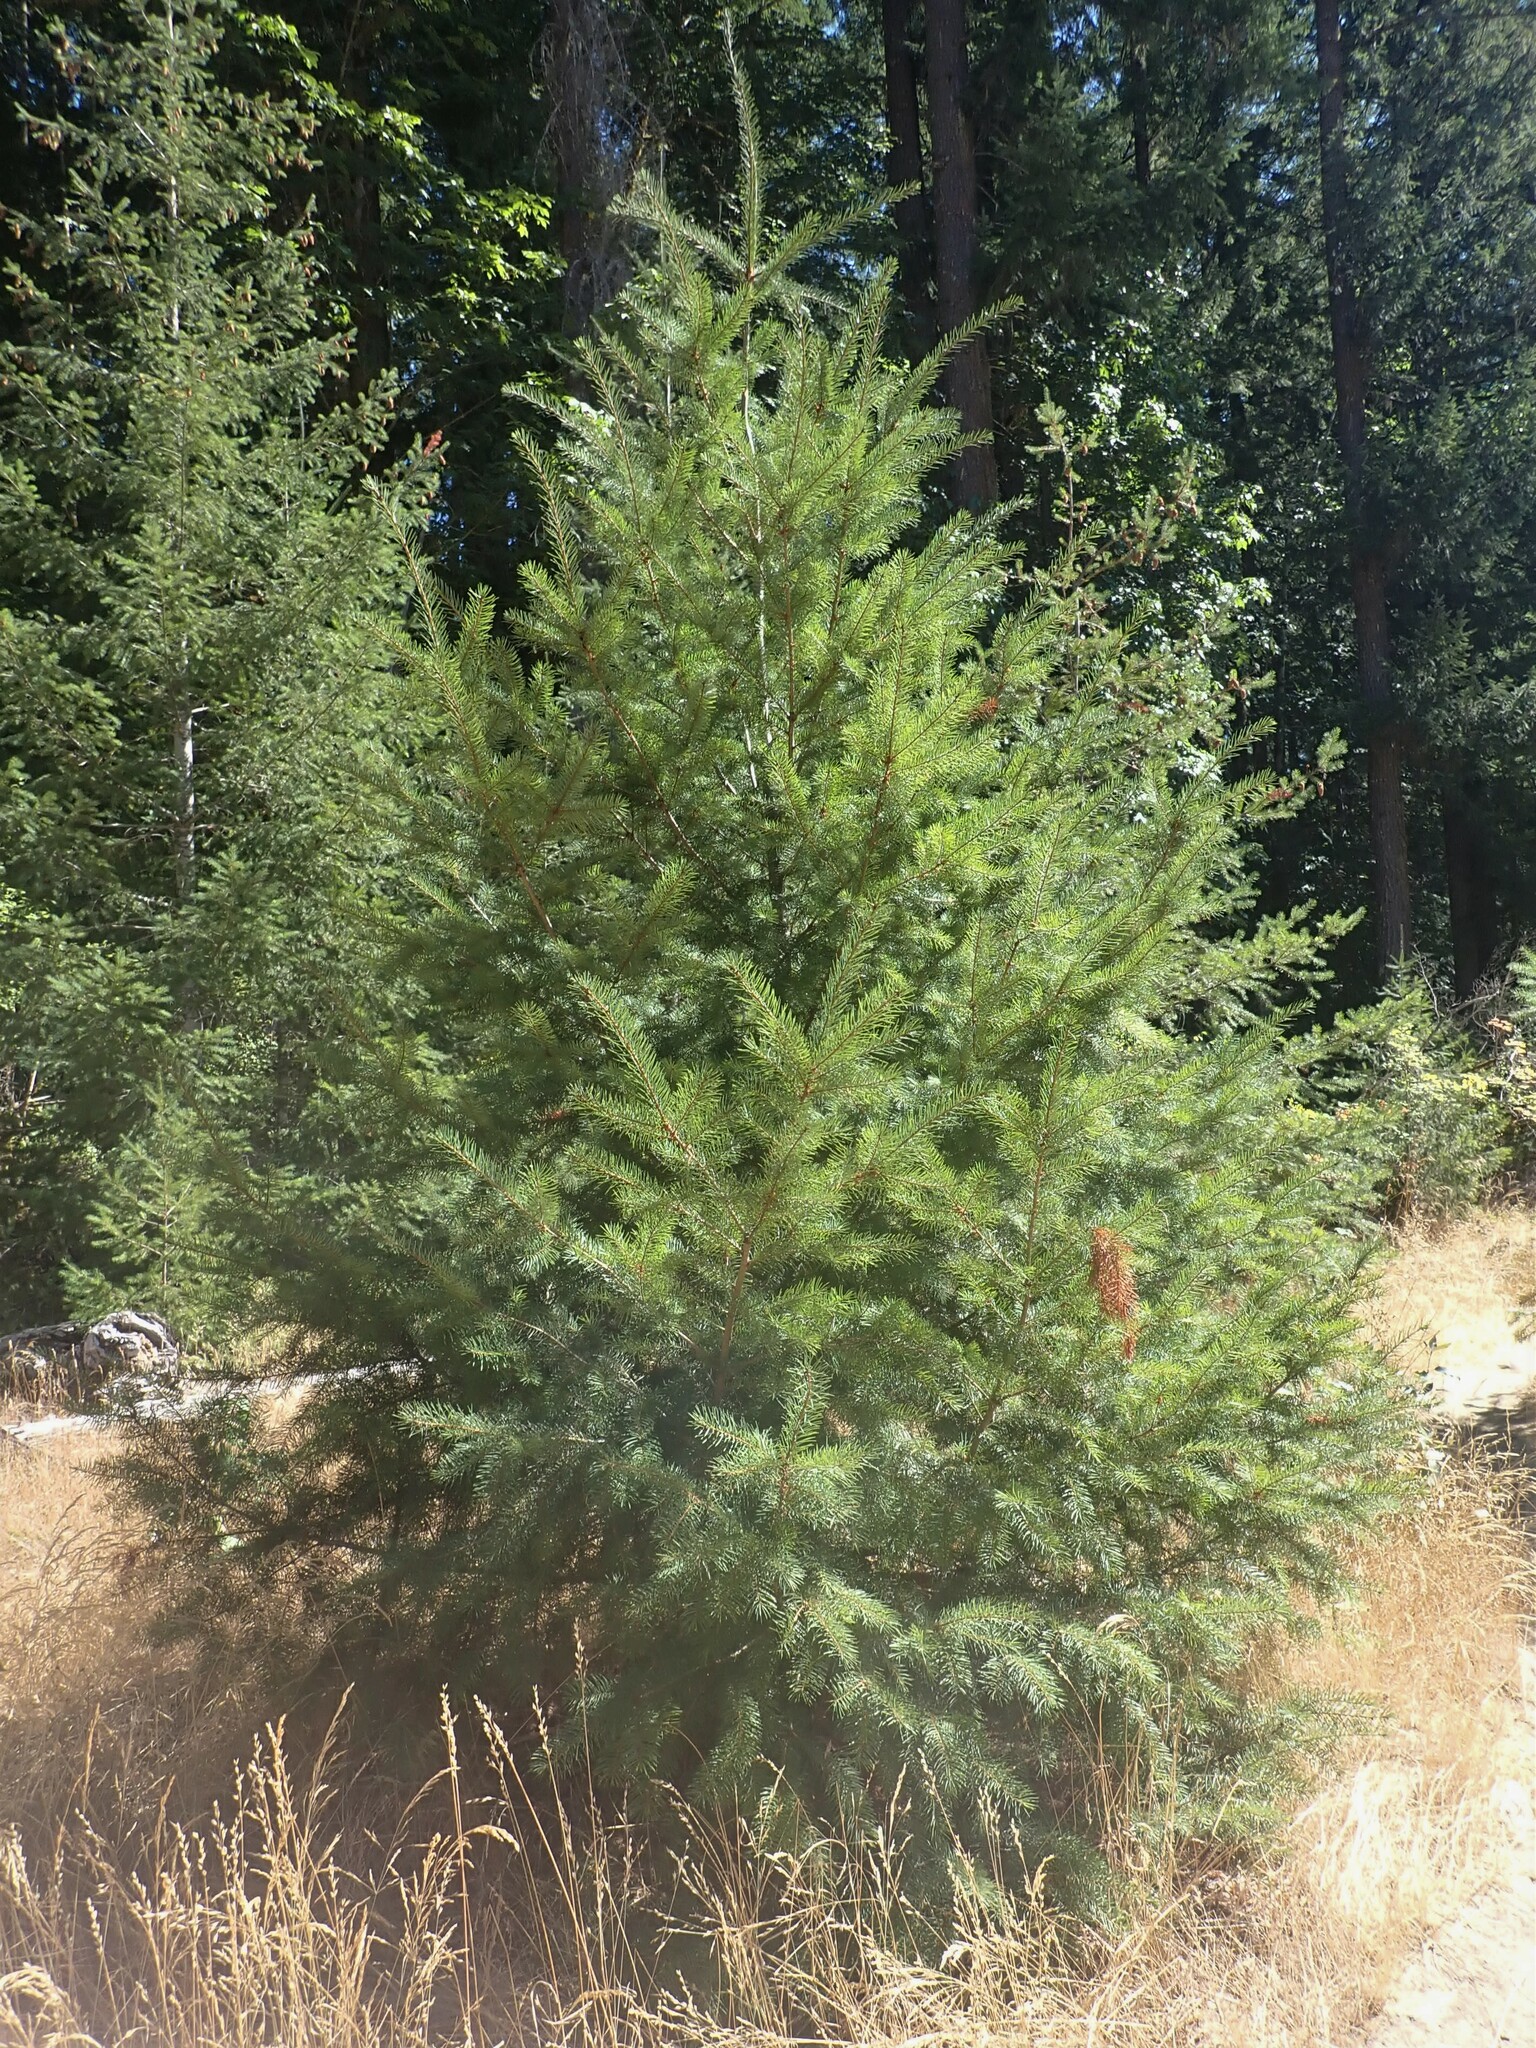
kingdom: Plantae
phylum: Tracheophyta
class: Pinopsida
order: Pinales
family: Pinaceae
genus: Pseudotsuga
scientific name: Pseudotsuga menziesii
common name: Douglas fir
